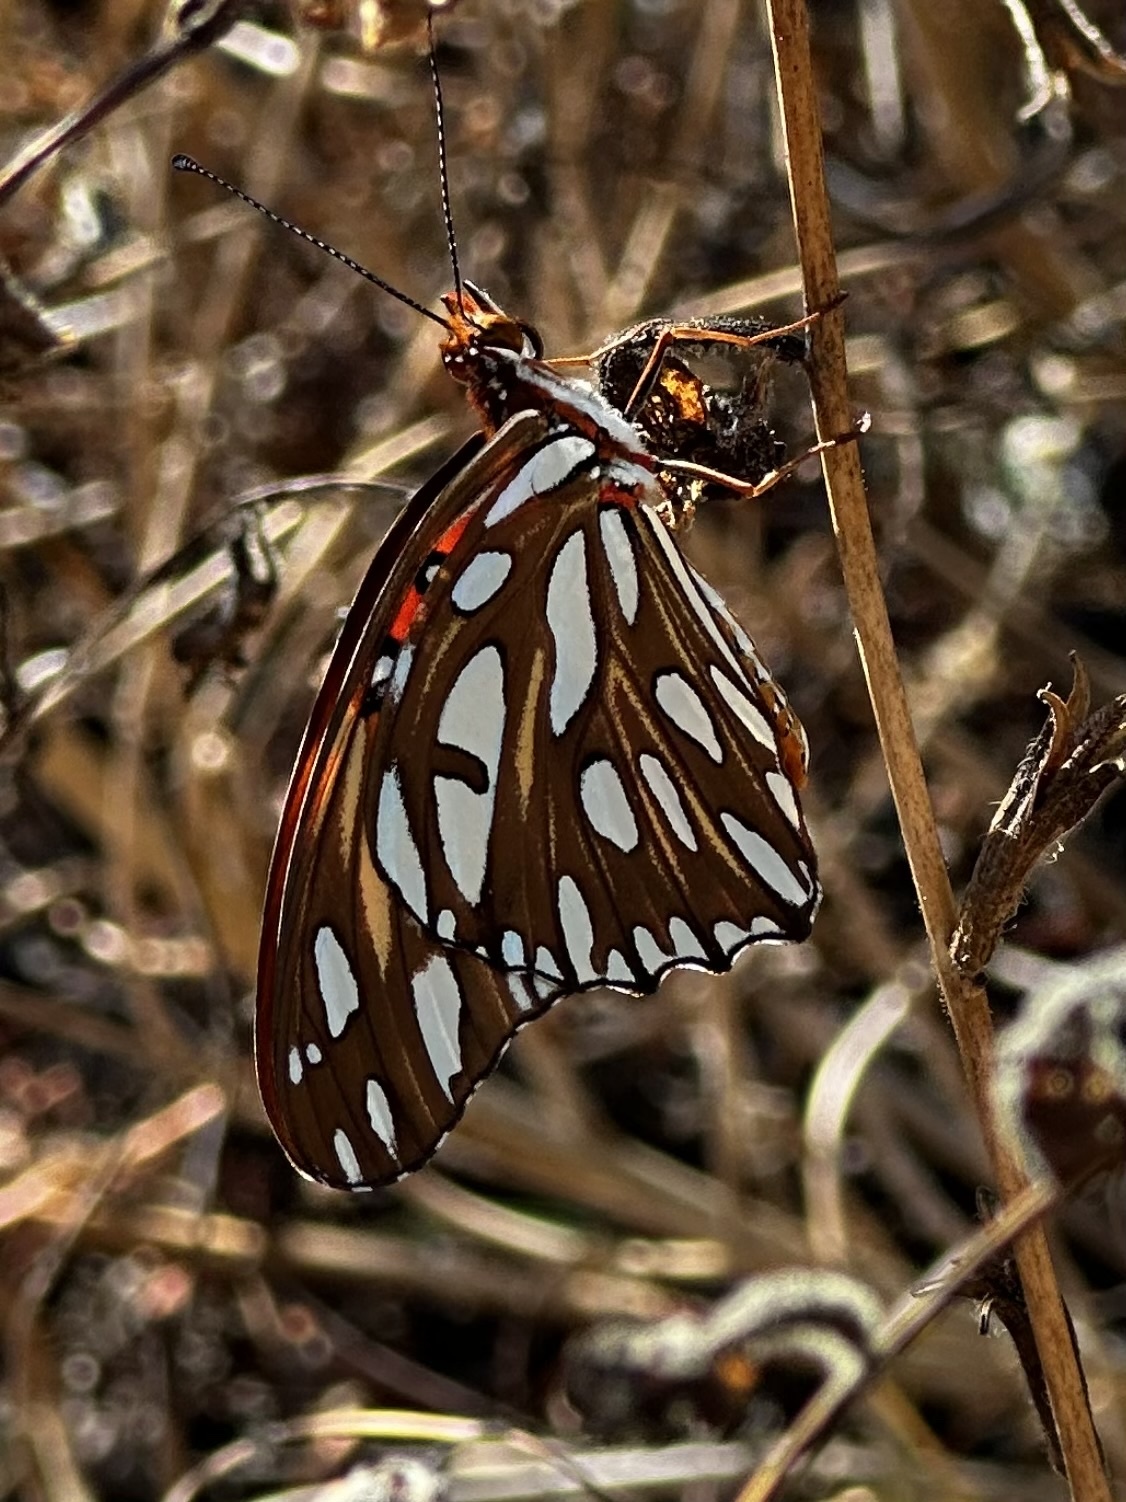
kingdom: Animalia
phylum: Arthropoda
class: Insecta
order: Lepidoptera
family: Nymphalidae
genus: Dione
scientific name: Dione vanillae
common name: Gulf fritillary
